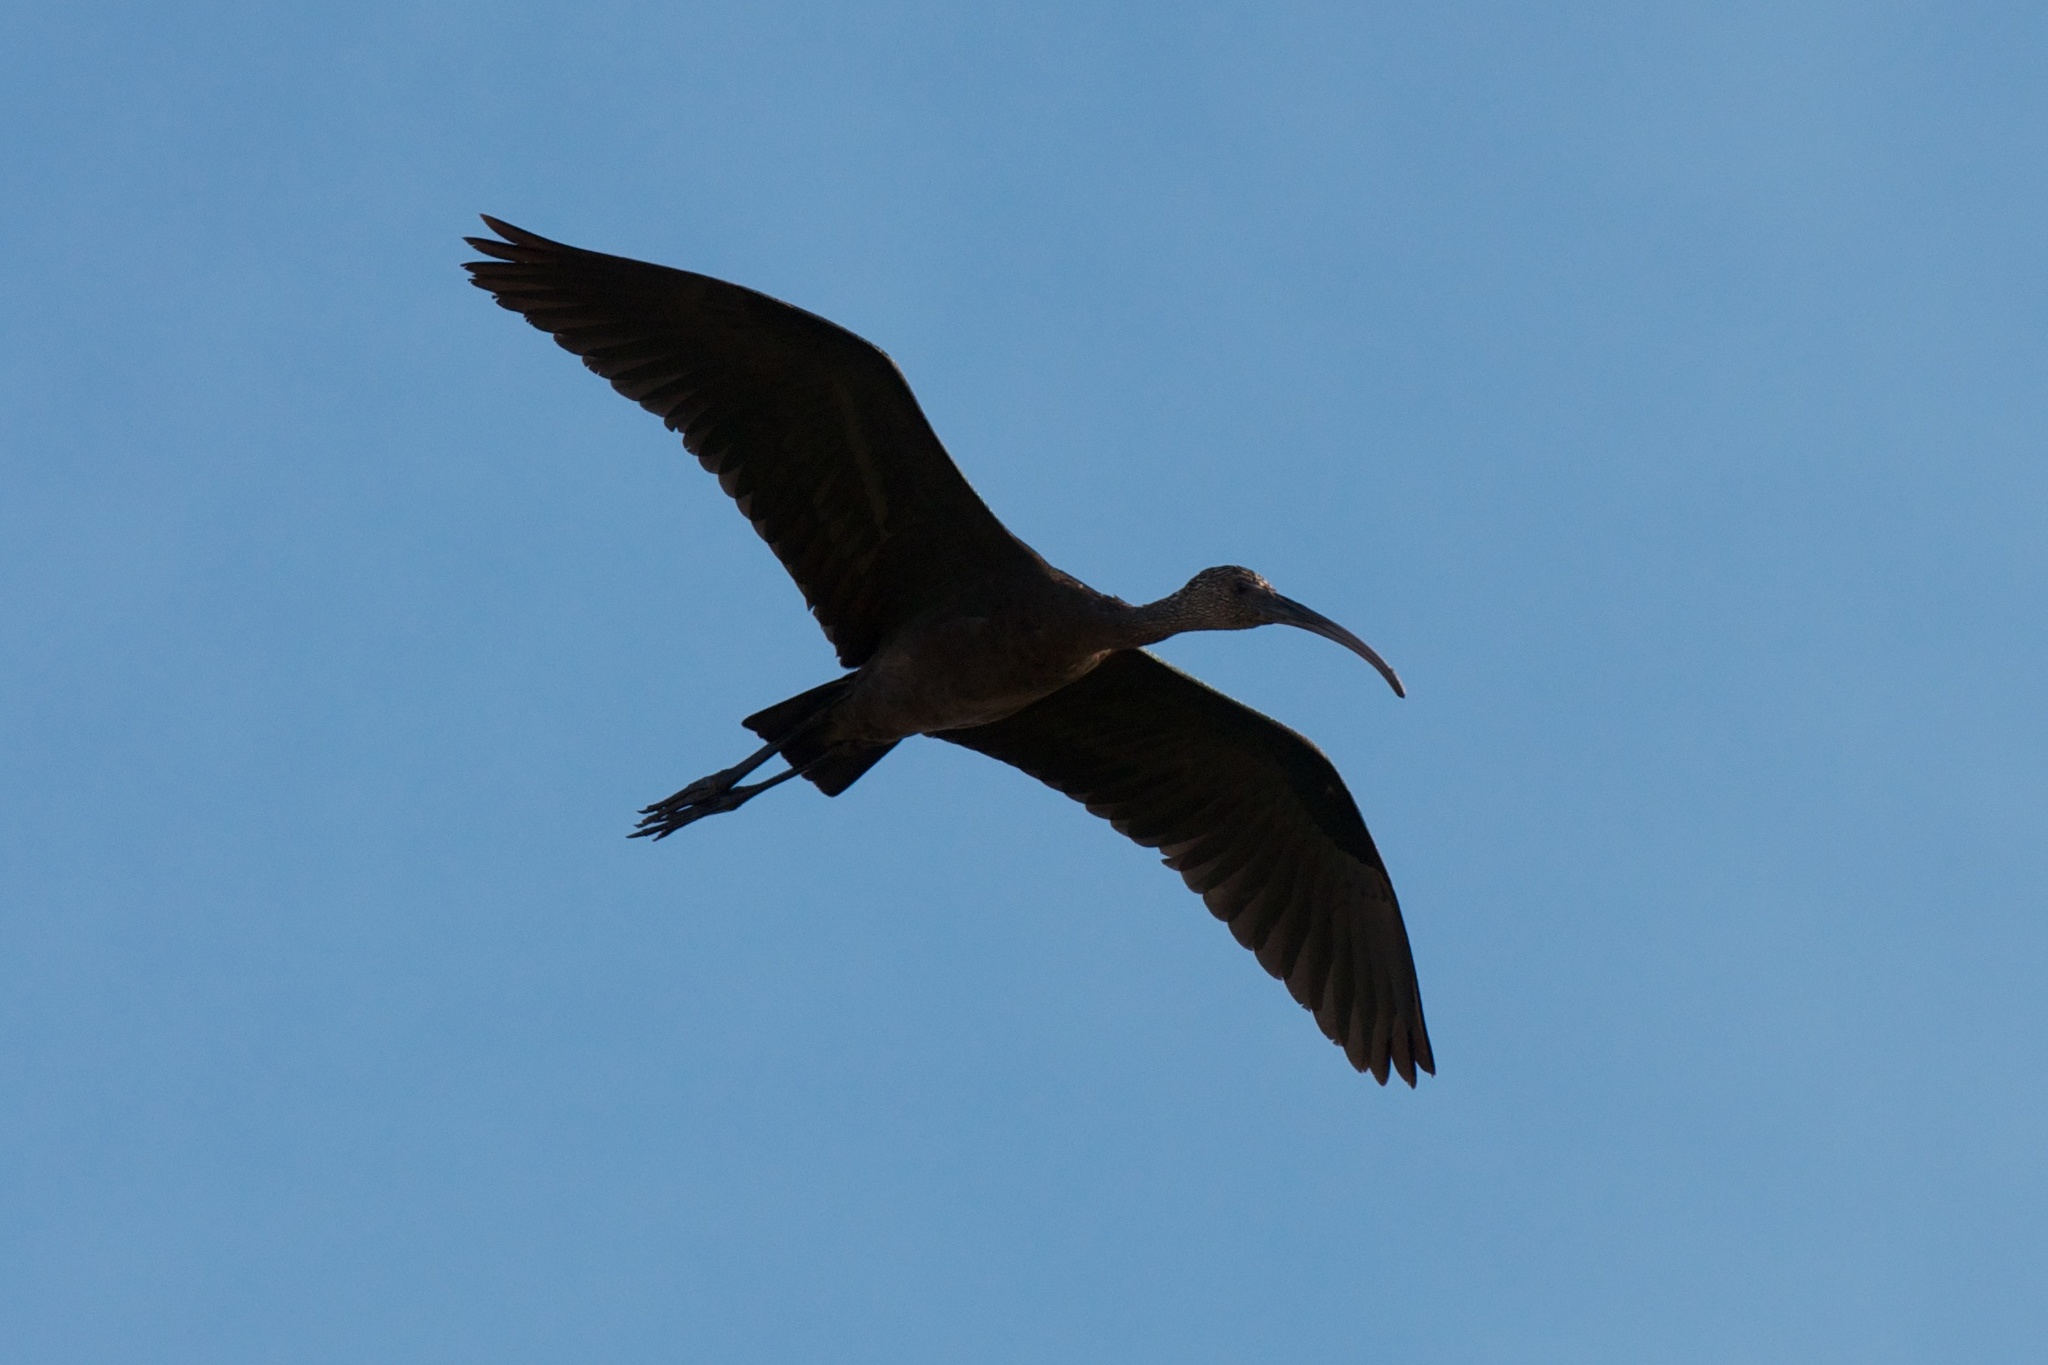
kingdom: Animalia
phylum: Chordata
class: Aves
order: Pelecaniformes
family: Threskiornithidae
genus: Plegadis
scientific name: Plegadis chihi
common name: White-faced ibis
